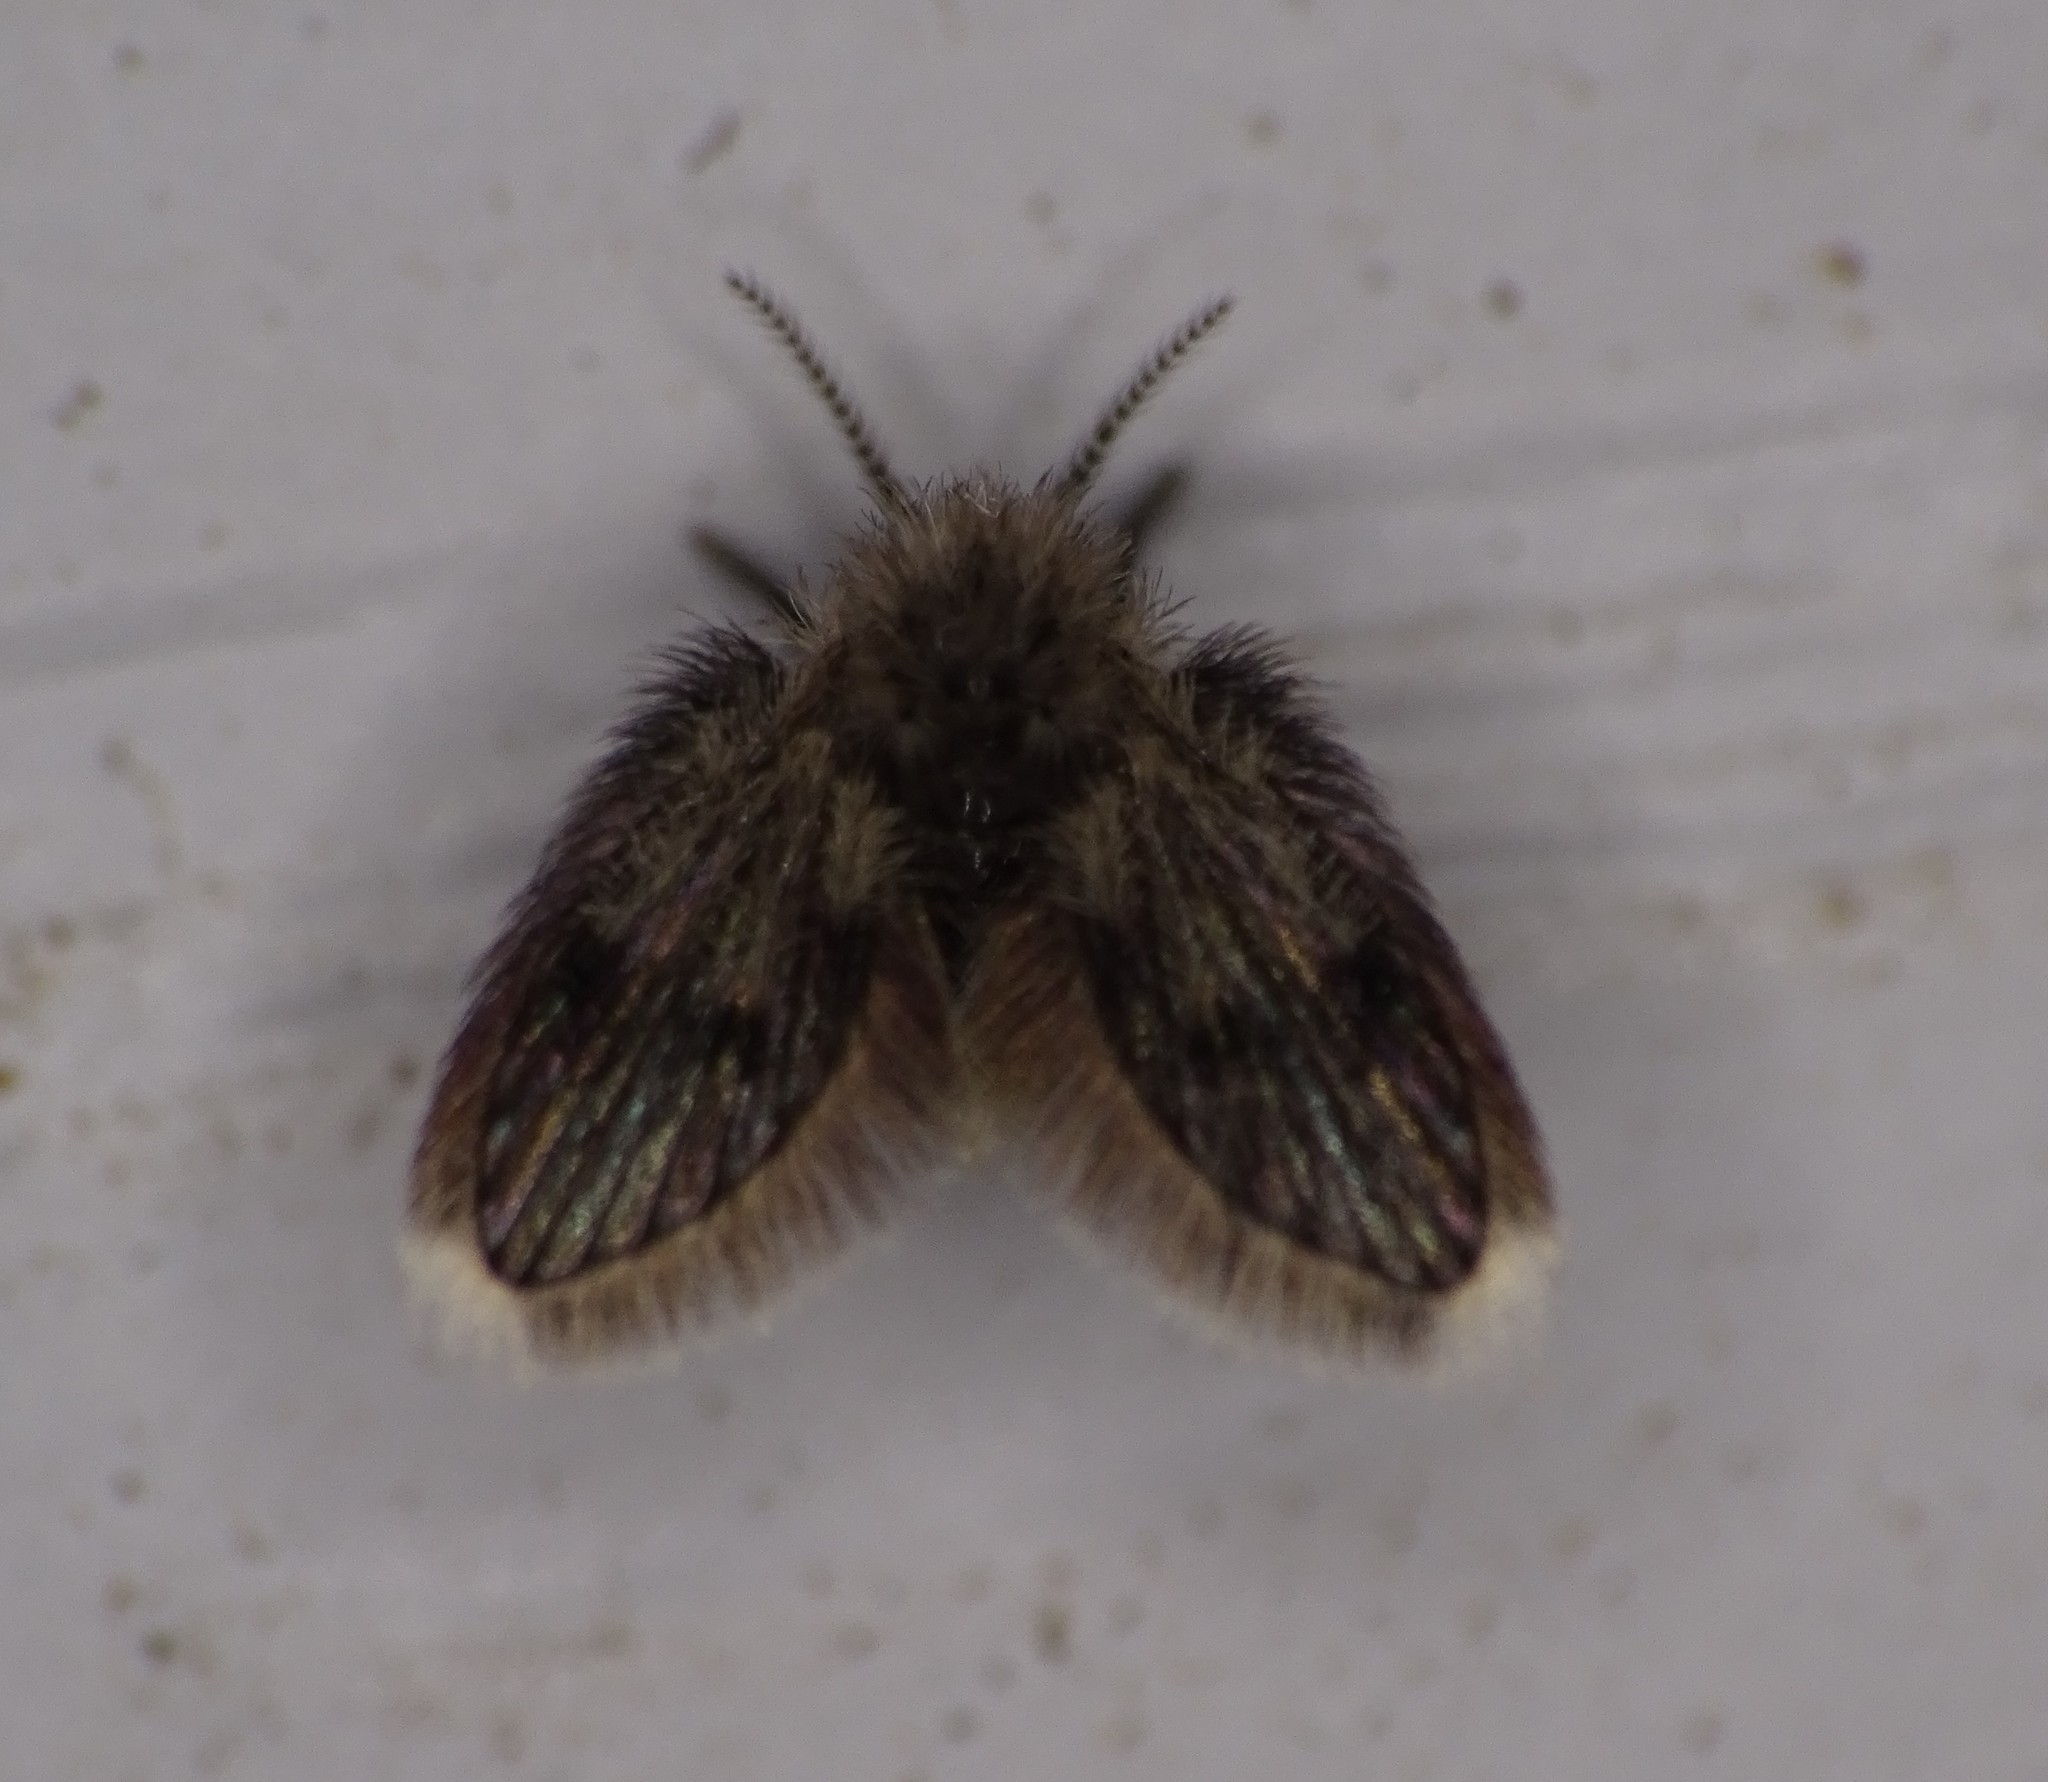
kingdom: Animalia
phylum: Arthropoda
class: Insecta
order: Diptera
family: Psychodidae
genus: Lepiseodina
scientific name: Lepiseodina
